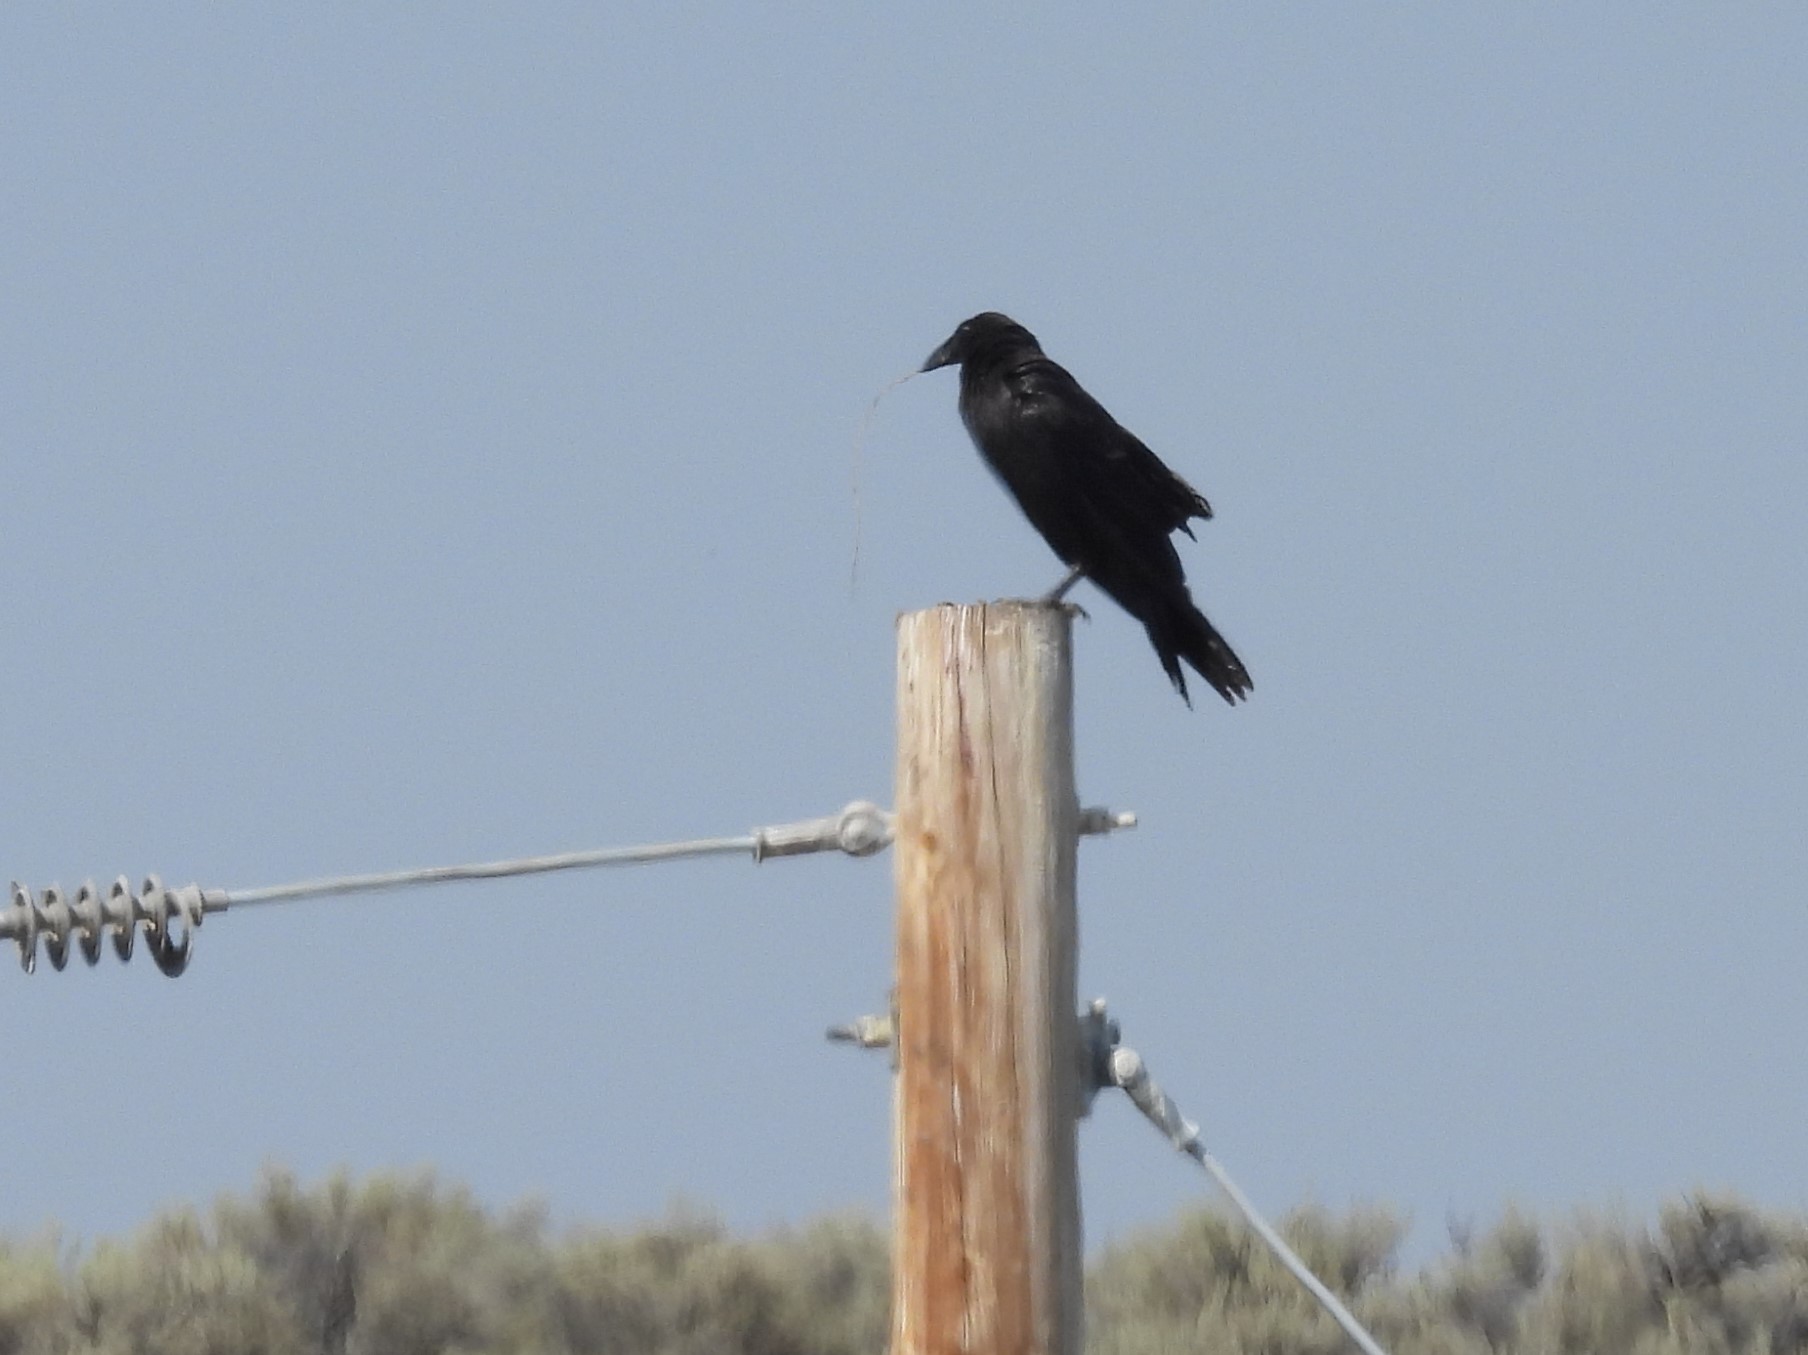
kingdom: Animalia
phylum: Chordata
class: Aves
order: Passeriformes
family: Corvidae
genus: Corvus
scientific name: Corvus corax
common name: Common raven
